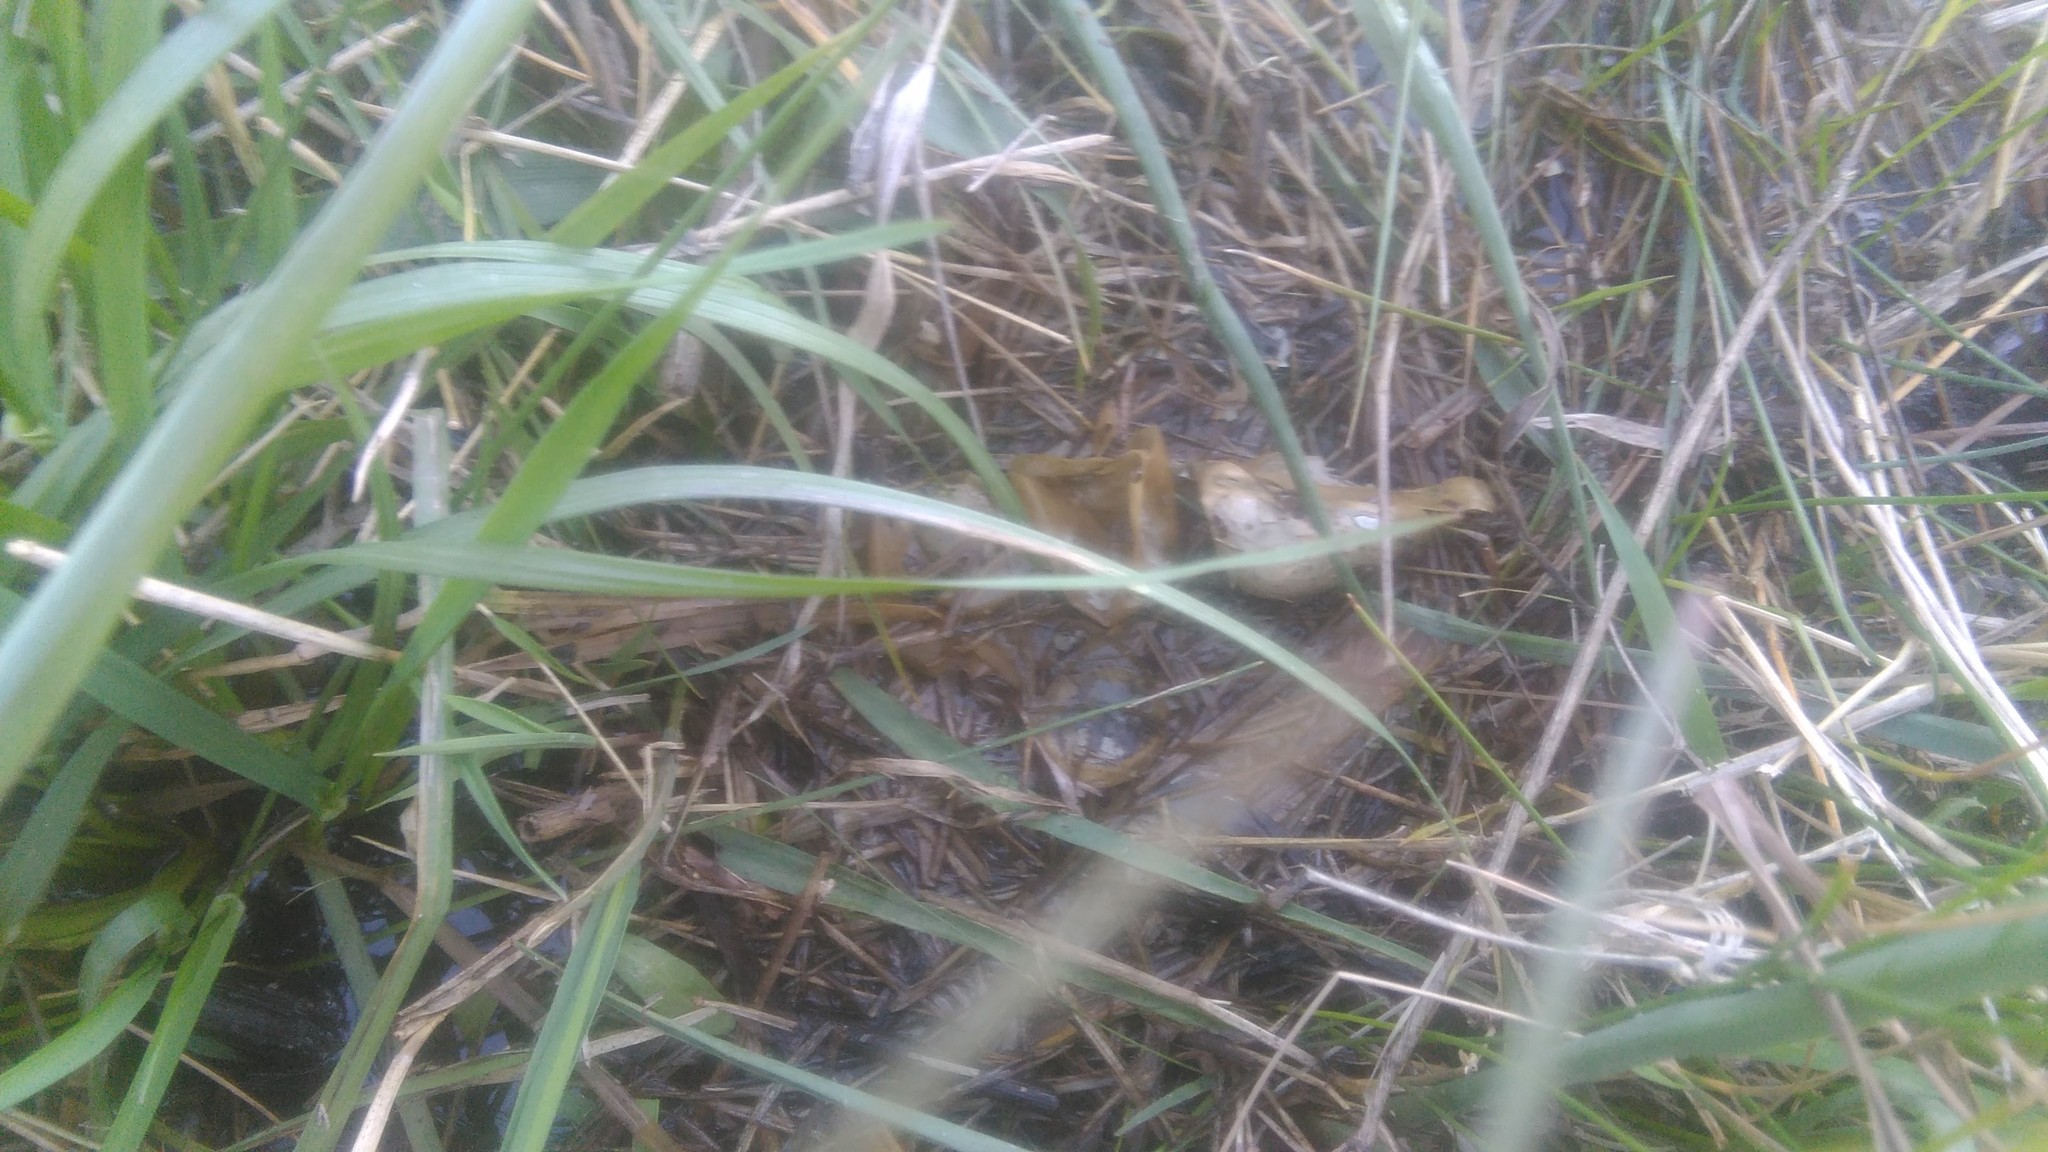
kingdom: Animalia
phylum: Chordata
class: Aves
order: Charadriiformes
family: Scolopacidae
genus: Gallinago
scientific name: Gallinago paraguaiae
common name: South american snipe
